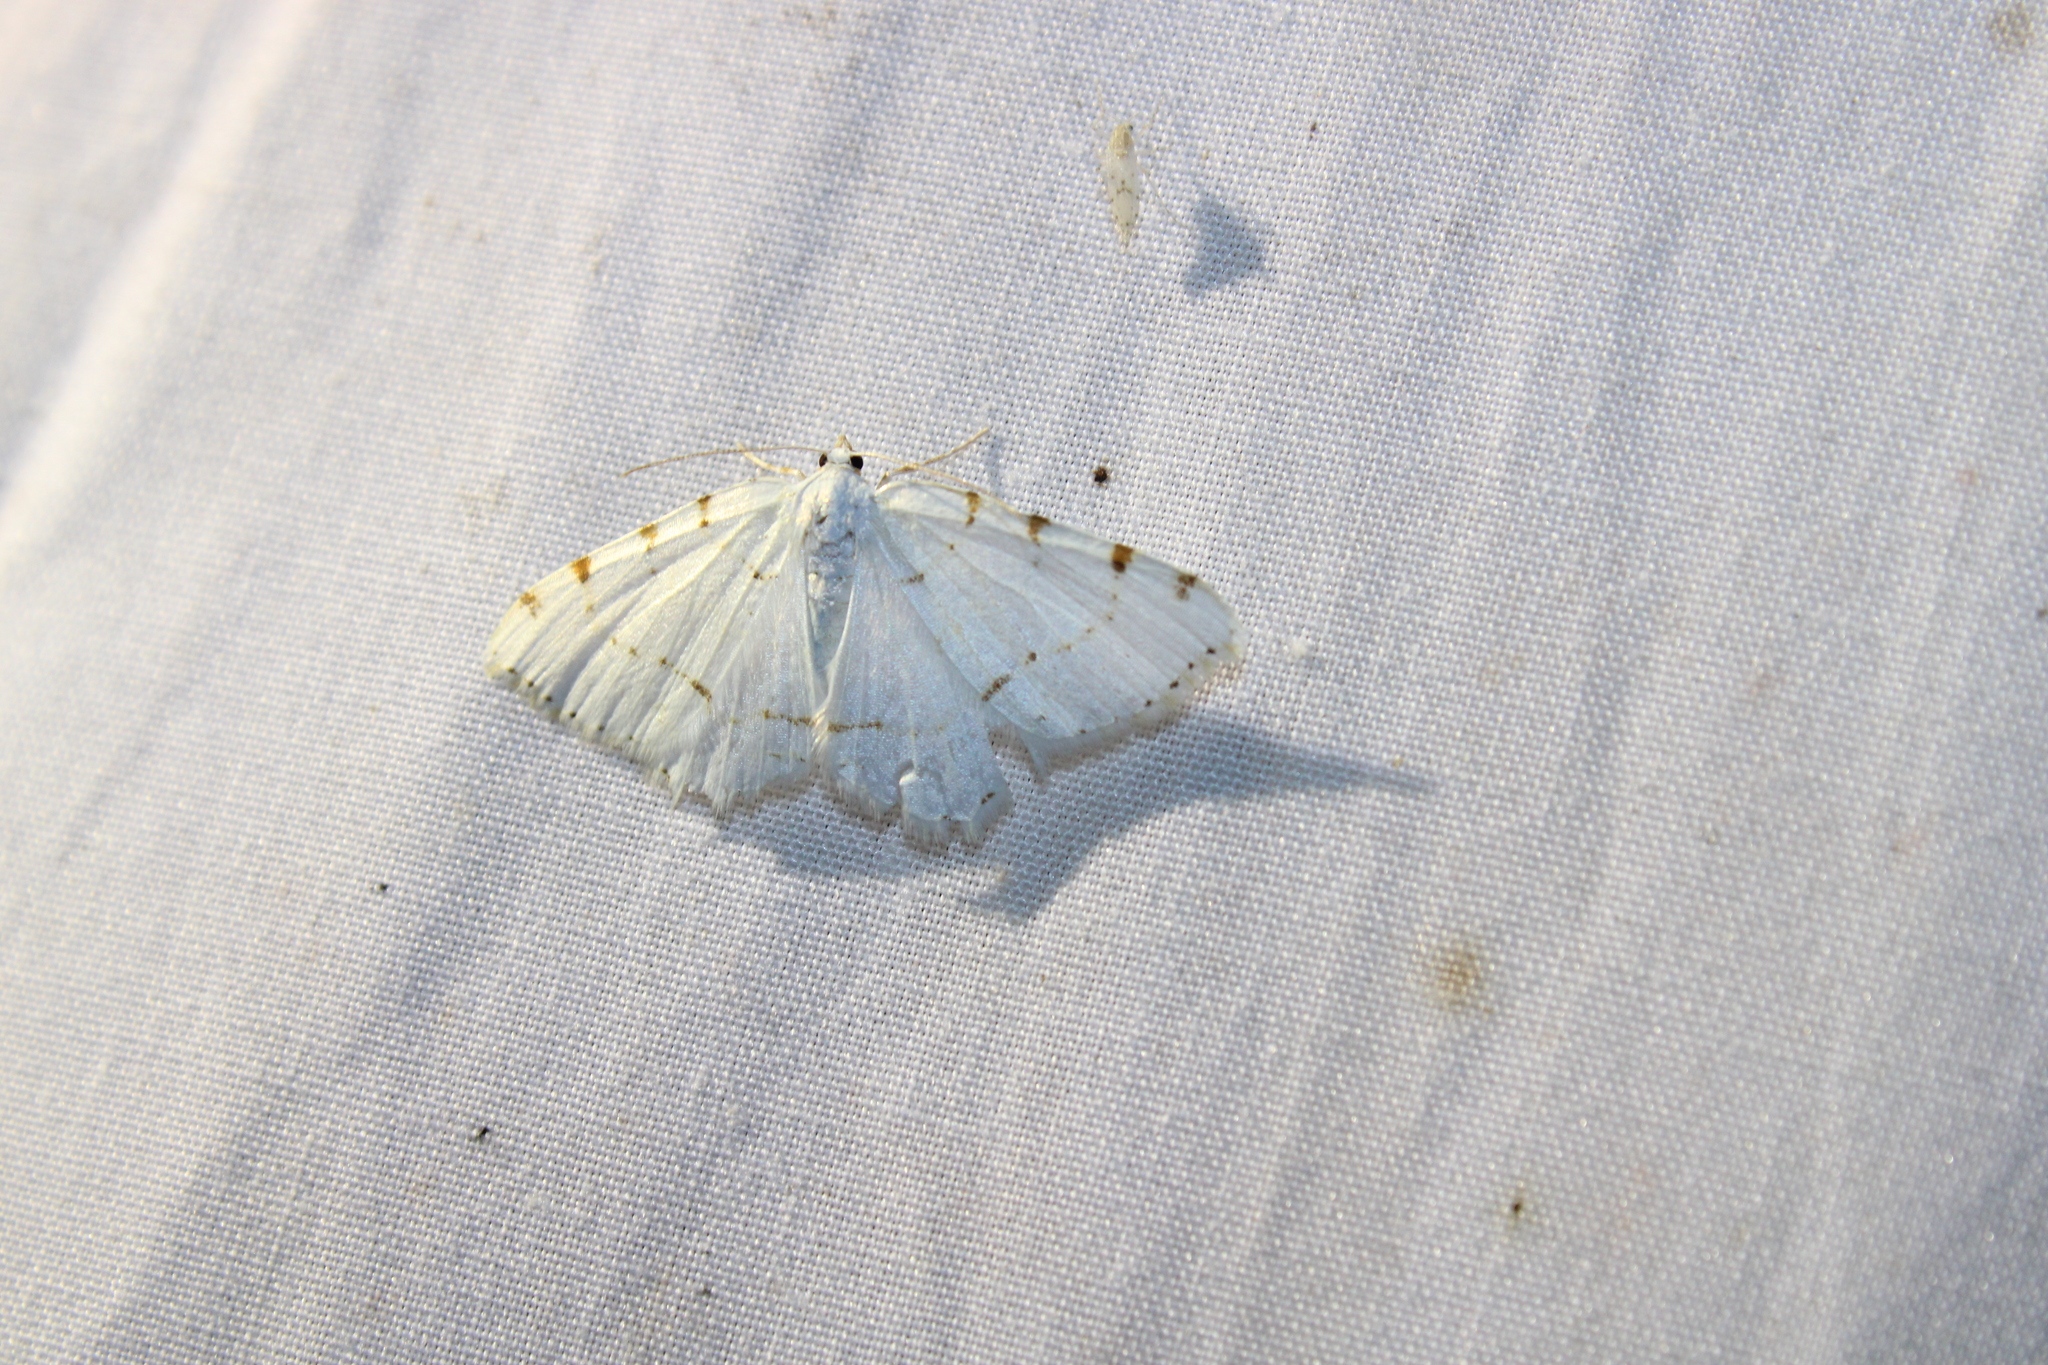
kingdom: Animalia
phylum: Arthropoda
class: Insecta
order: Lepidoptera
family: Geometridae
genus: Macaria
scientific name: Macaria pustularia
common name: Lesser maple spanworm moth
